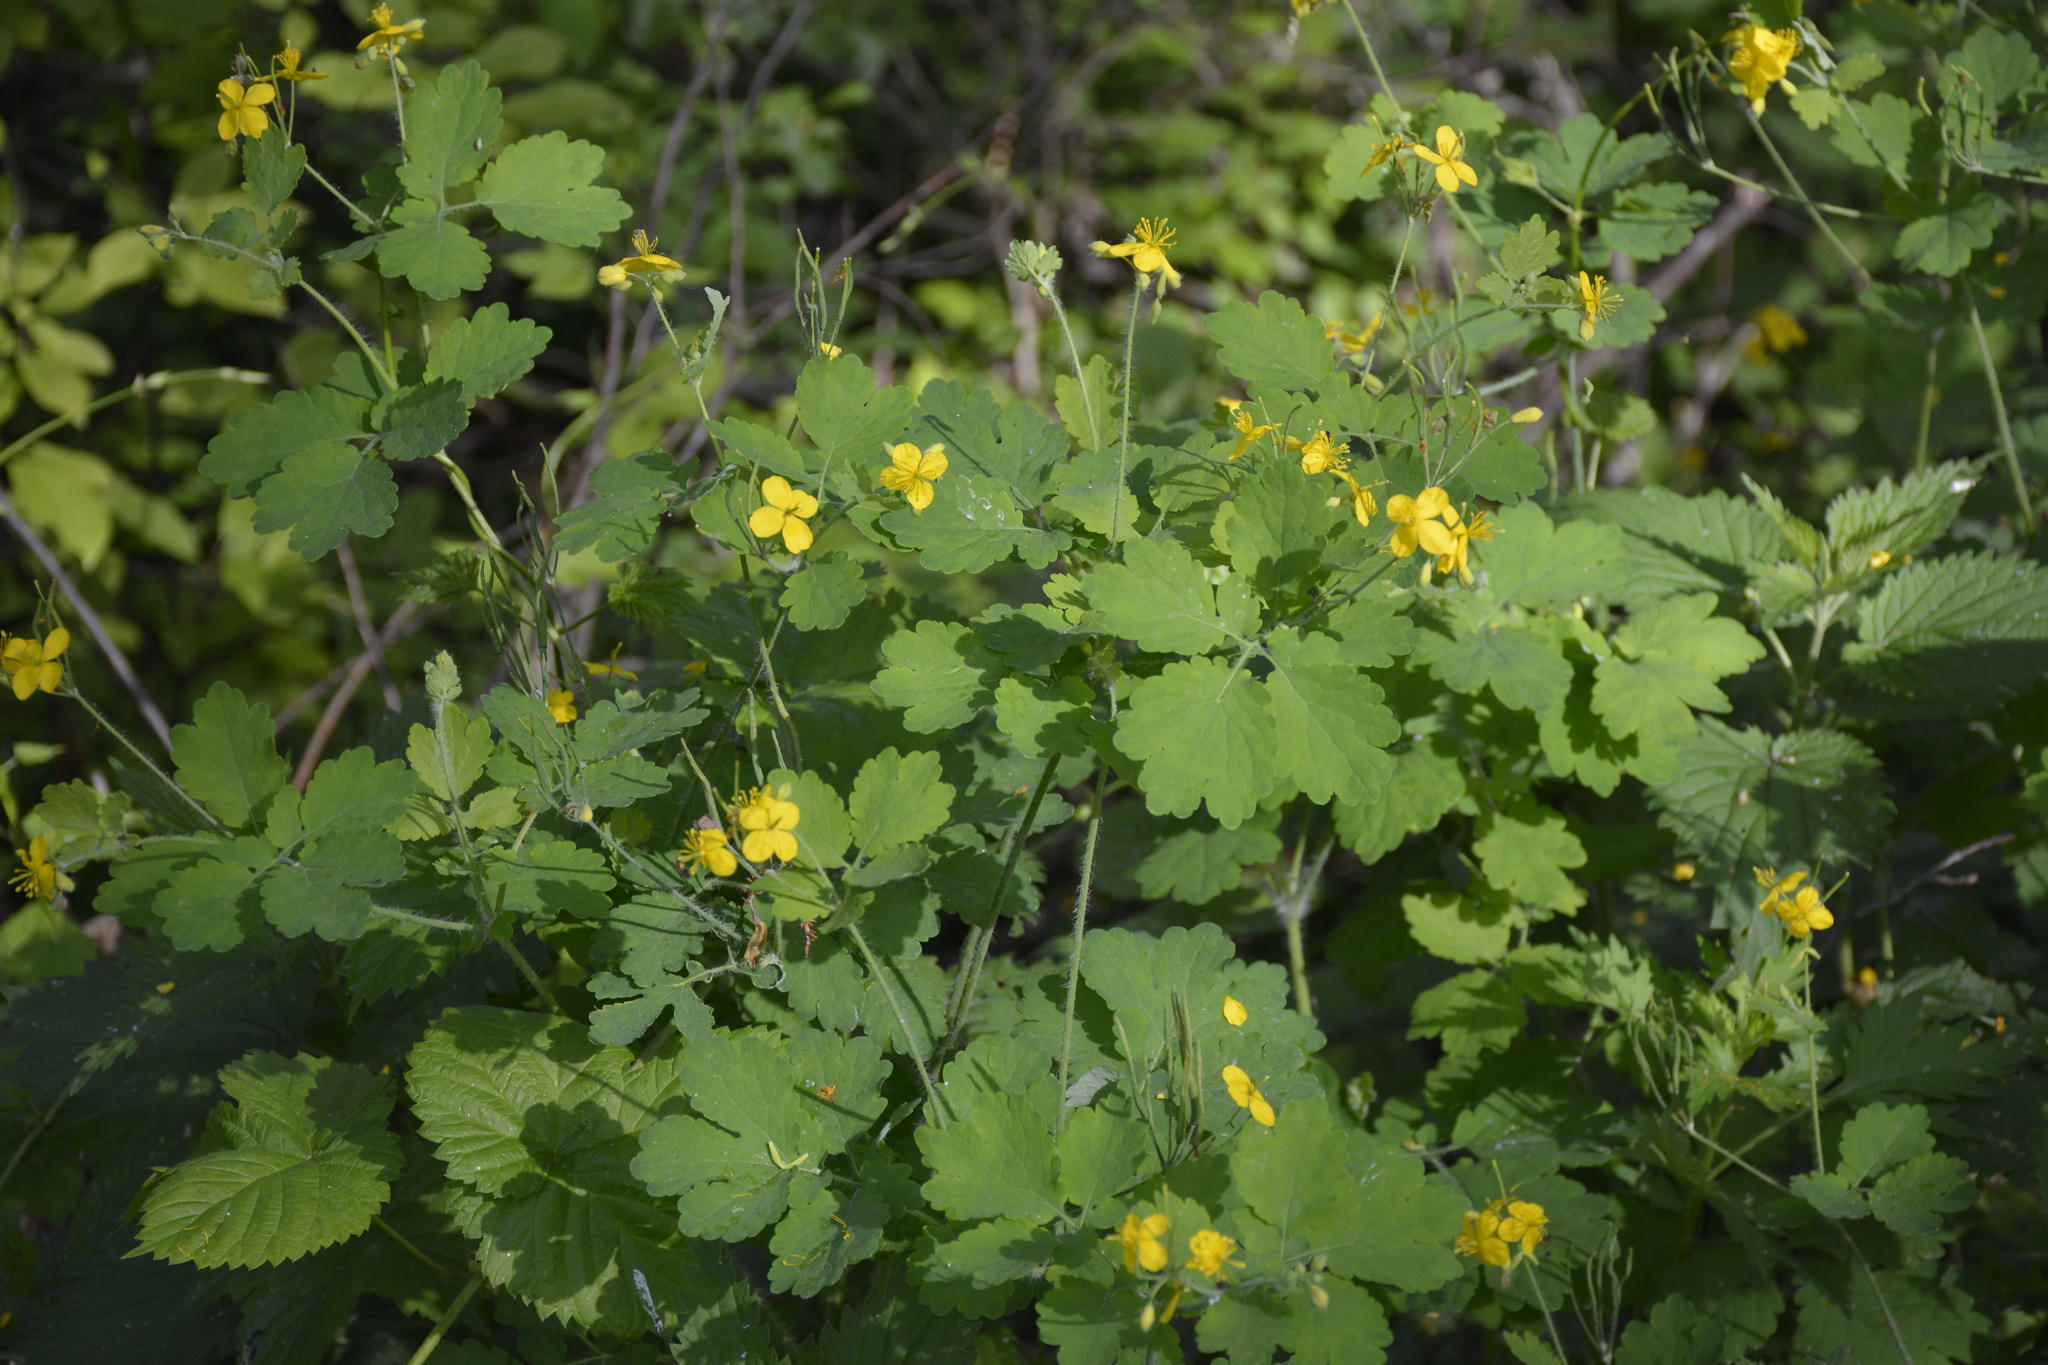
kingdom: Plantae
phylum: Tracheophyta
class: Magnoliopsida
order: Ranunculales
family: Papaveraceae
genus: Chelidonium
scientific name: Chelidonium majus
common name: Greater celandine
